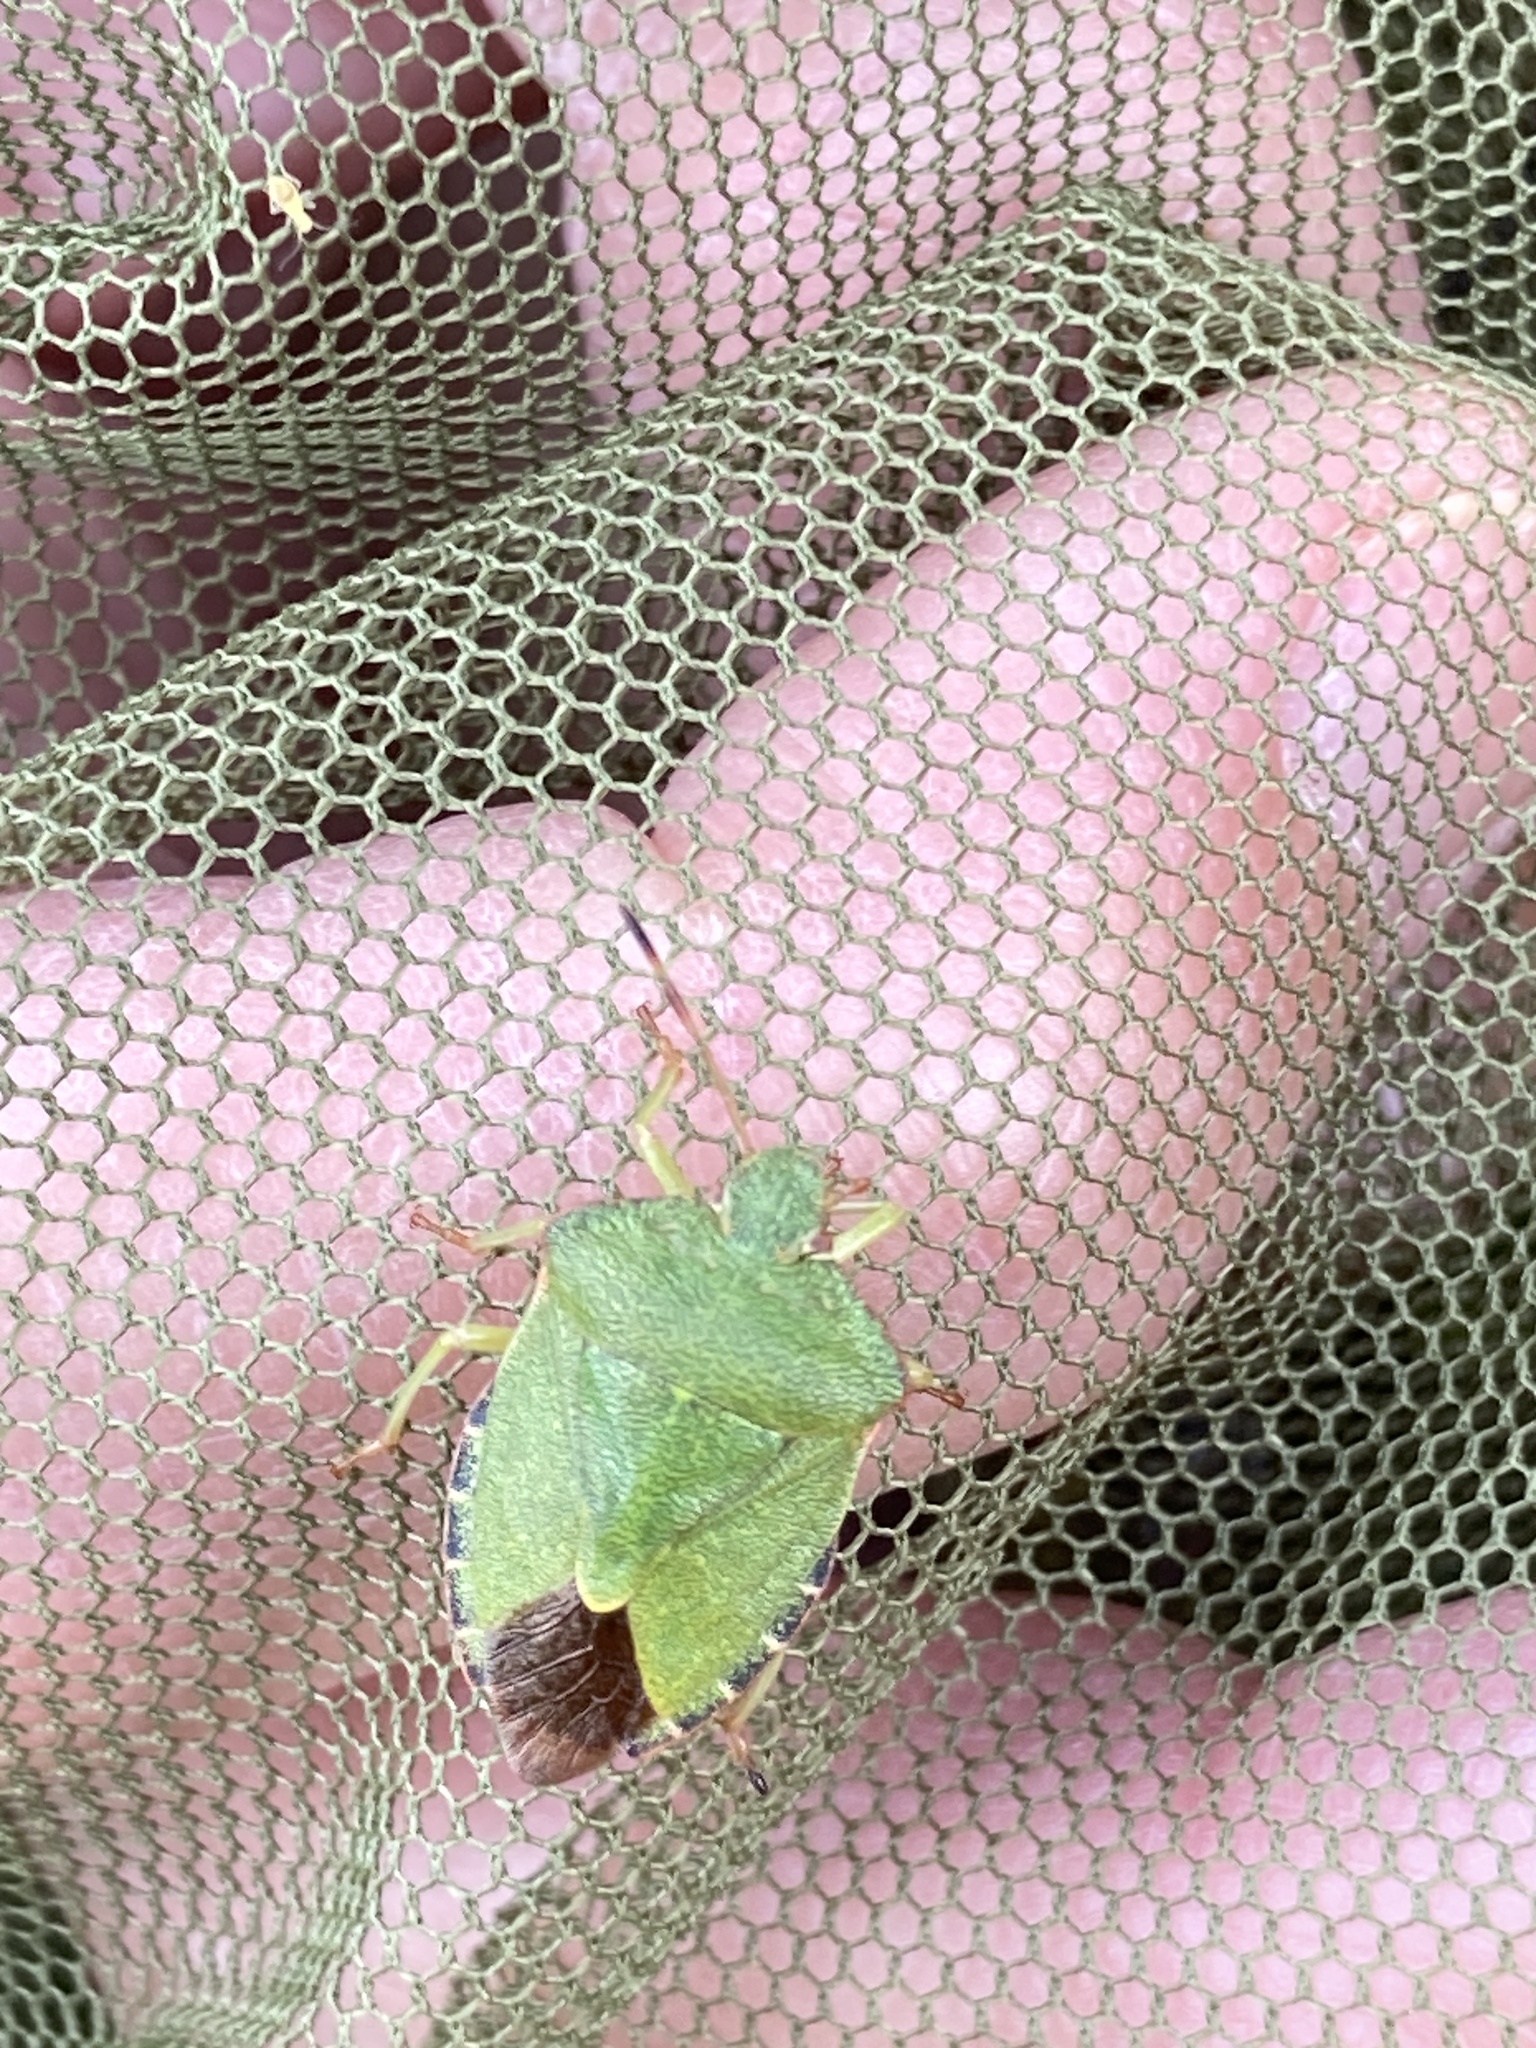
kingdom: Animalia
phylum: Arthropoda
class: Insecta
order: Hemiptera
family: Pentatomidae
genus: Palomena
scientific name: Palomena prasina
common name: Green shieldbug
